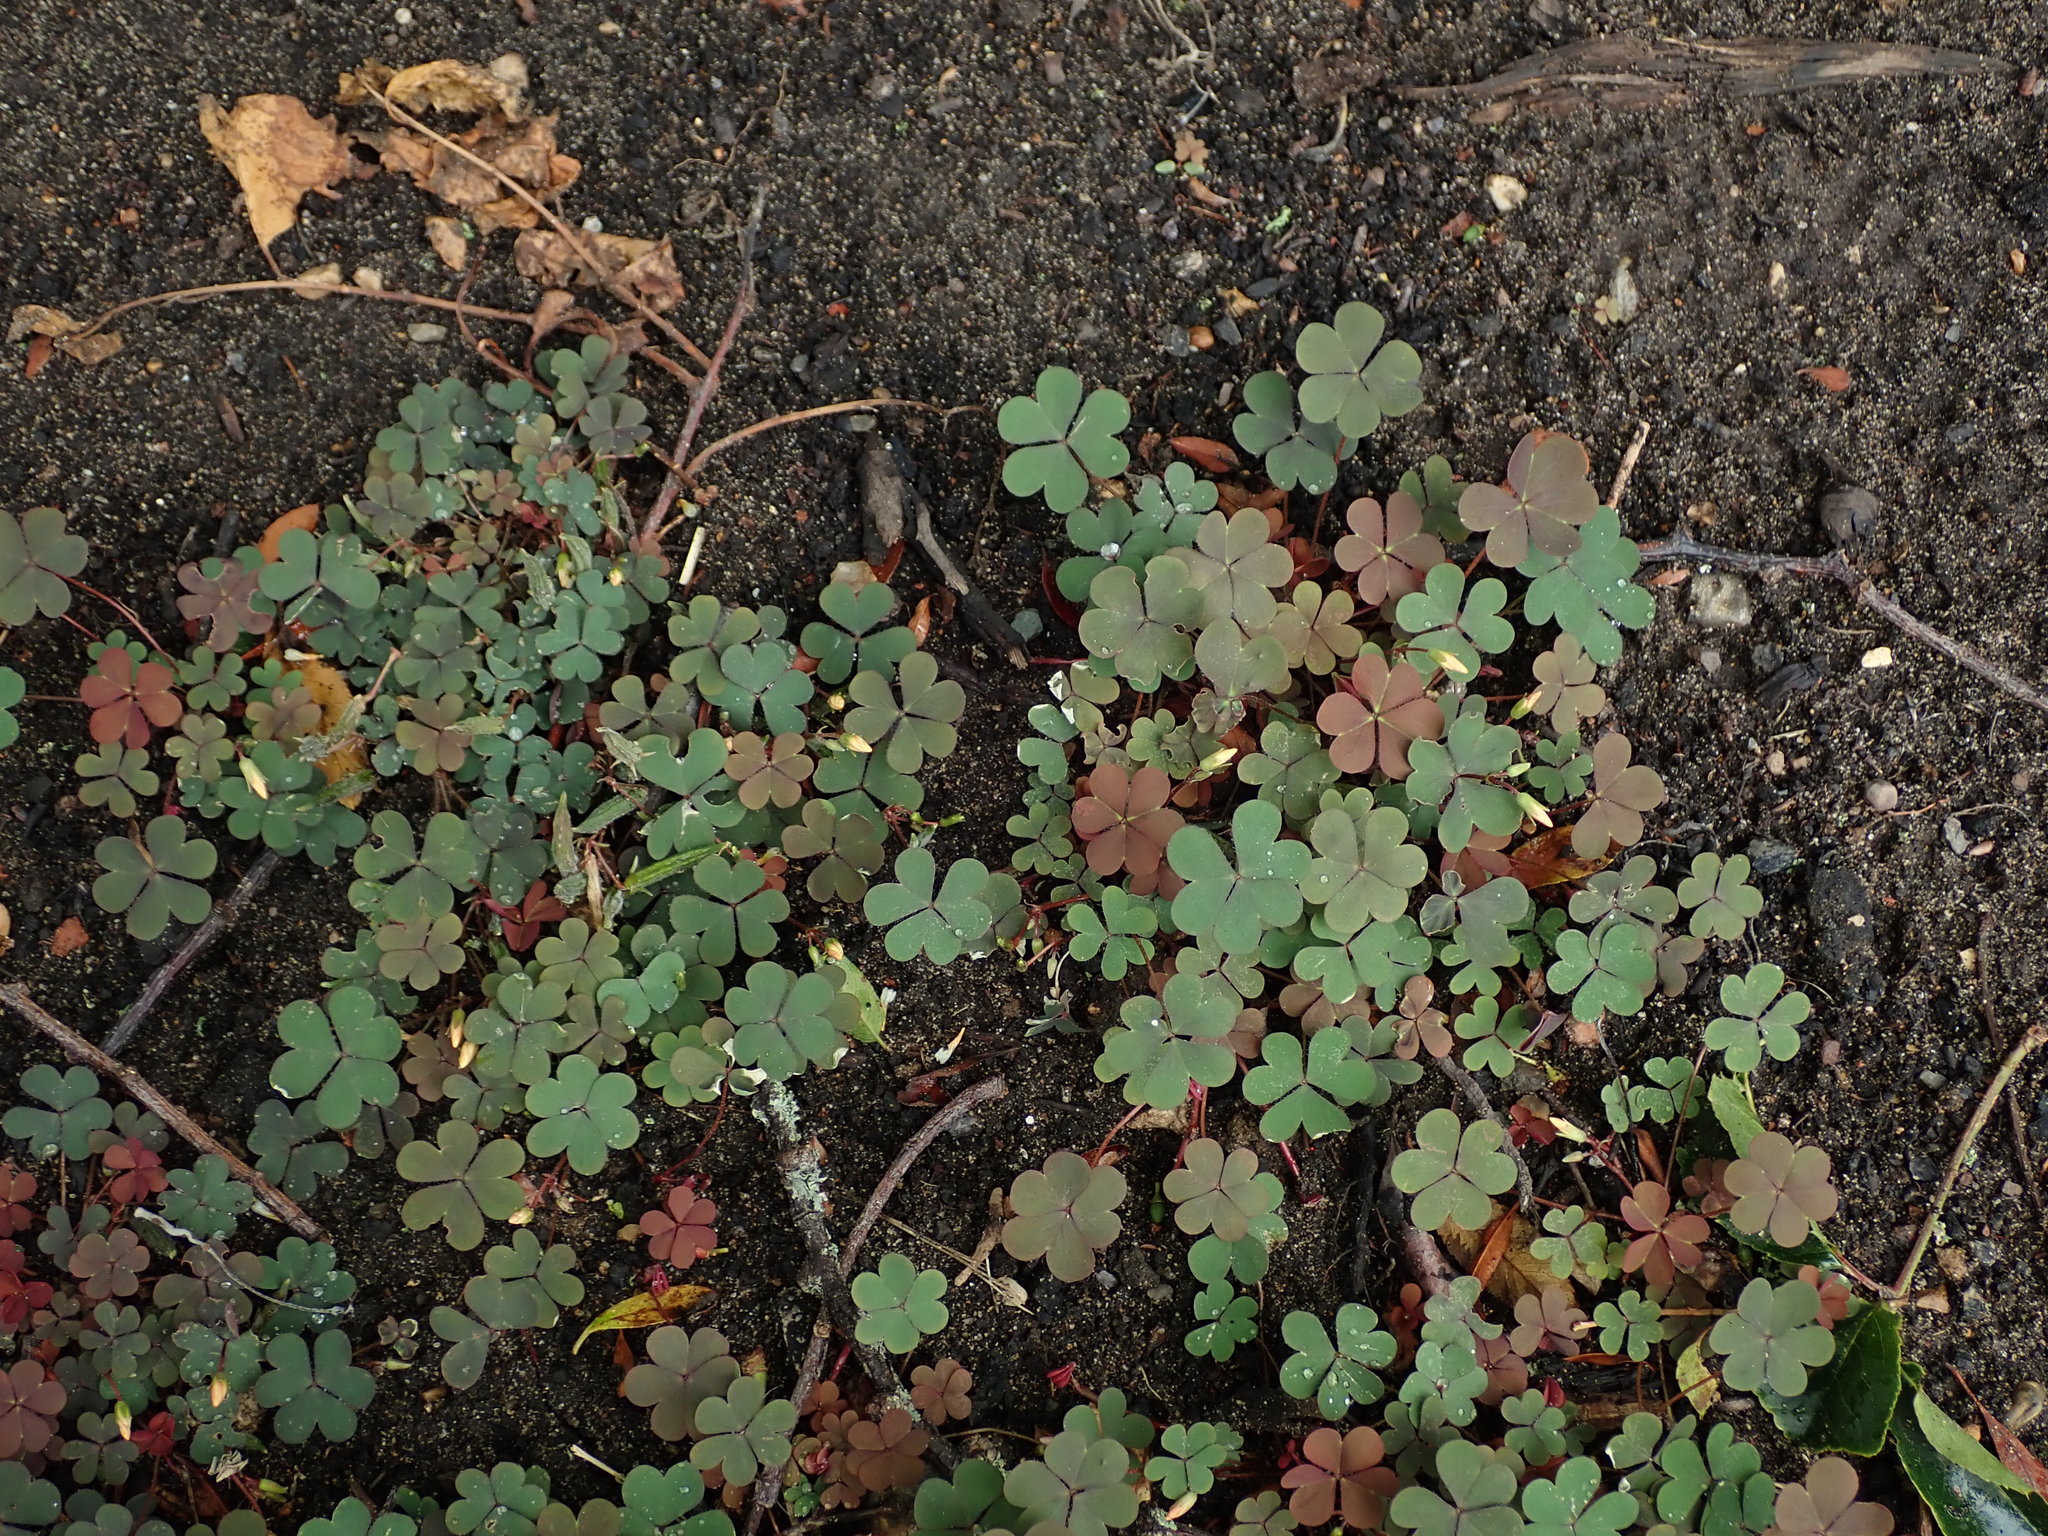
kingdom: Plantae
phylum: Tracheophyta
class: Magnoliopsida
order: Oxalidales
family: Oxalidaceae
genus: Oxalis
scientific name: Oxalis corniculata
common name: Procumbent yellow-sorrel
